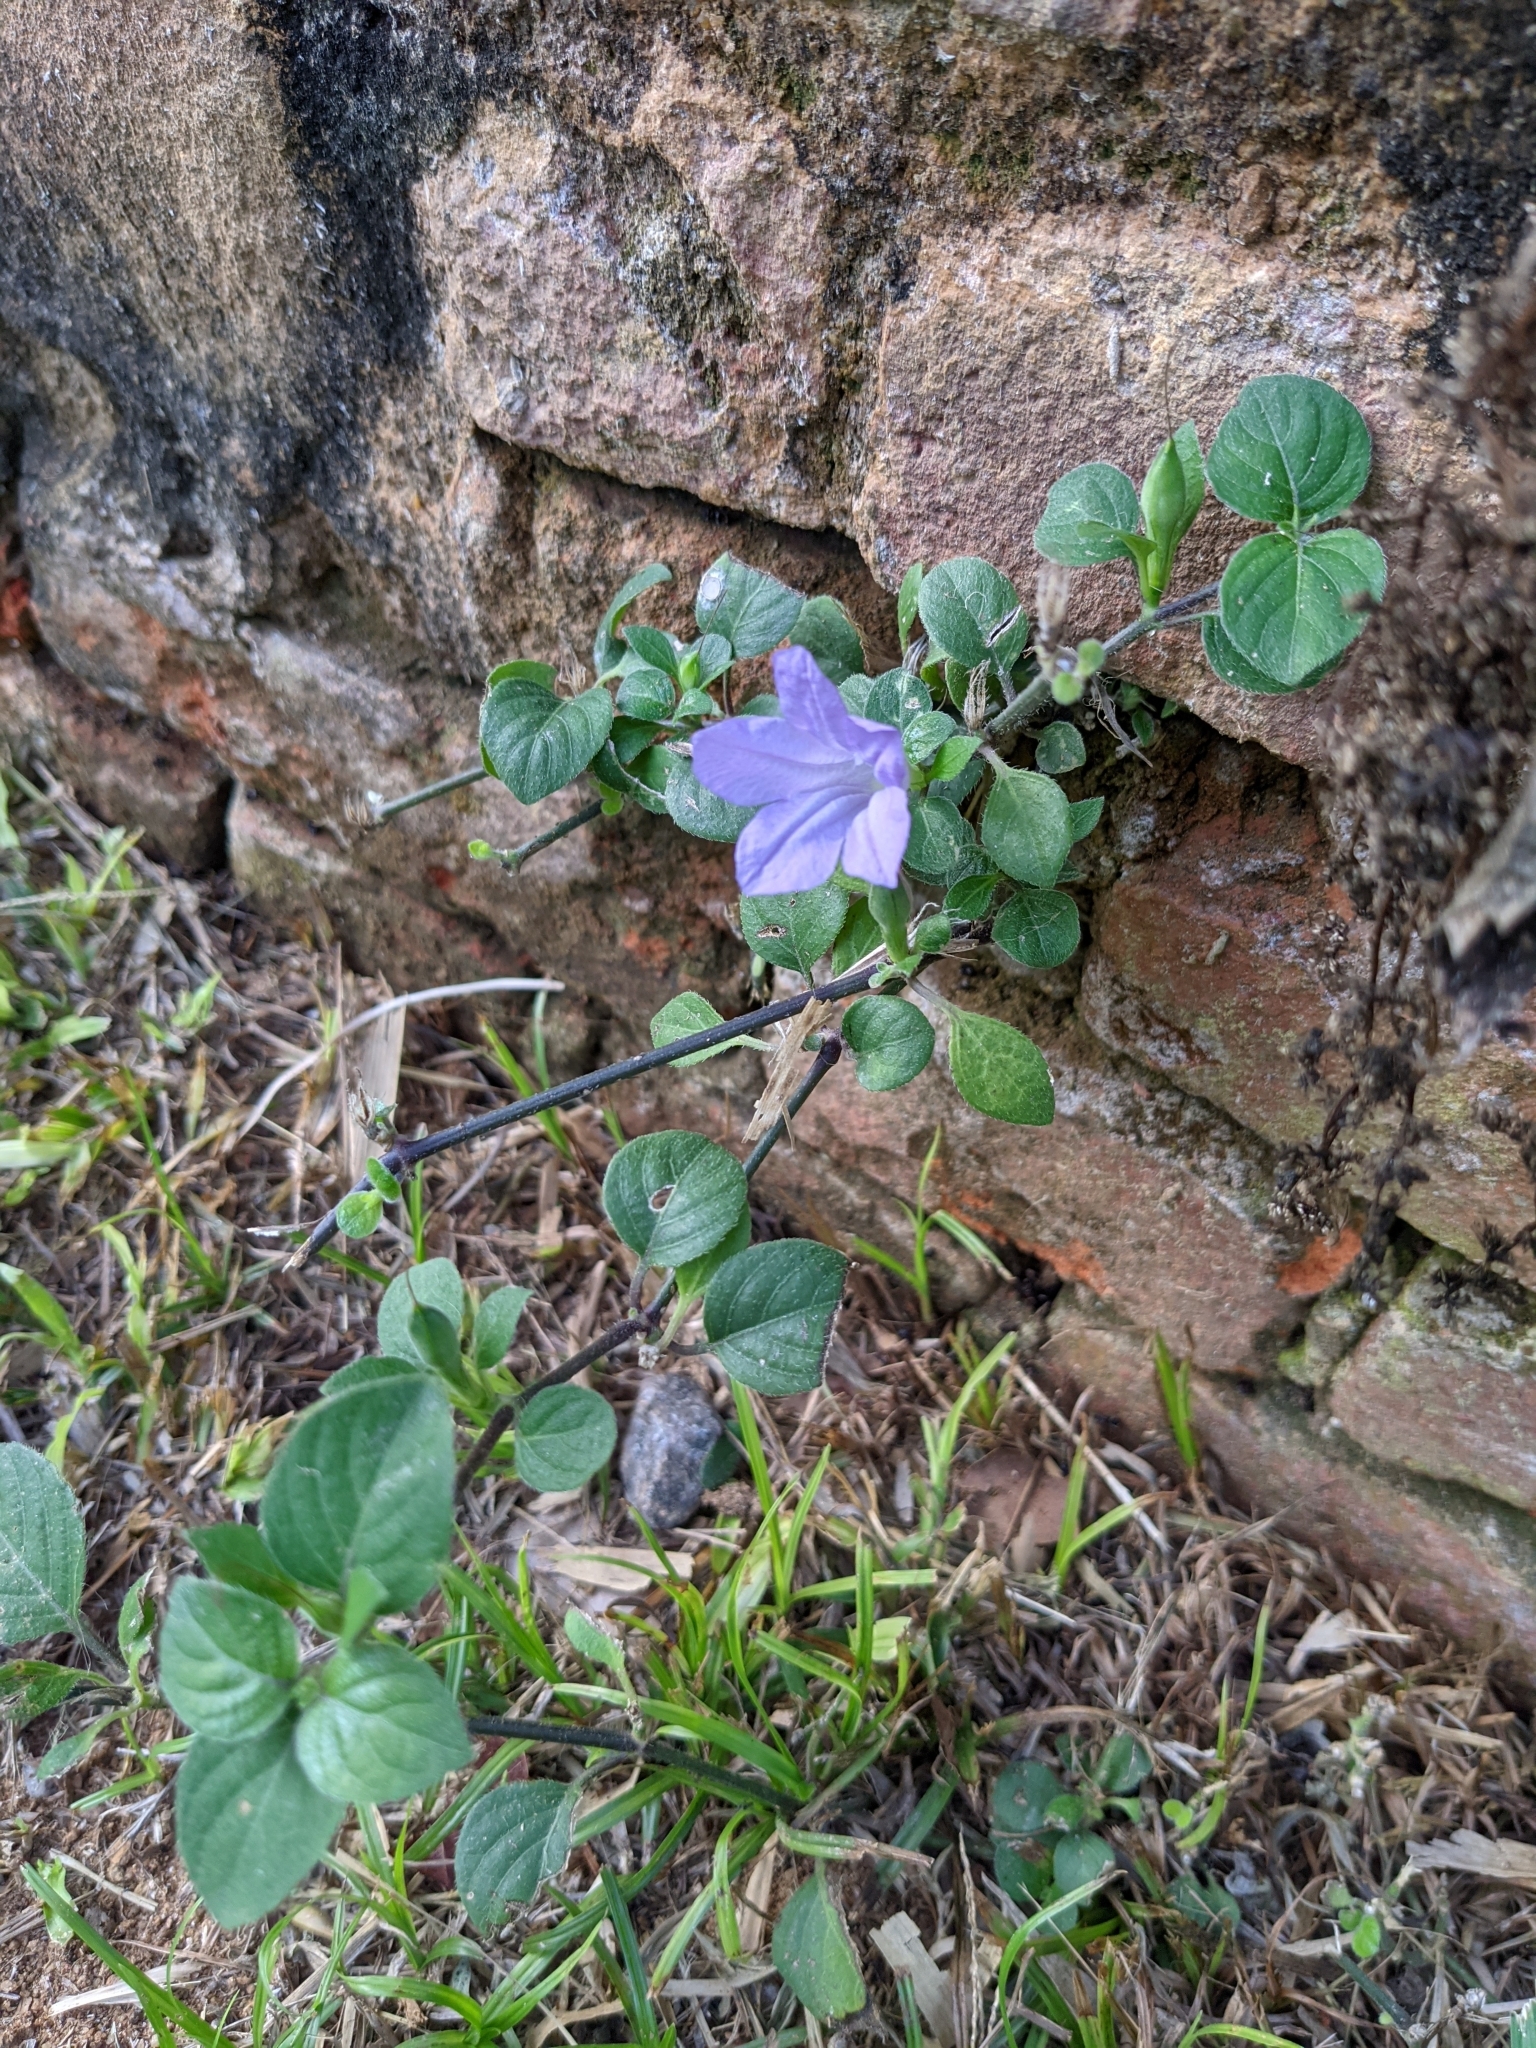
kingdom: Plantae
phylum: Tracheophyta
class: Magnoliopsida
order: Lamiales
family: Acanthaceae
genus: Ruellia
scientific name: Ruellia prostrata
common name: Prostrate wild petunia
